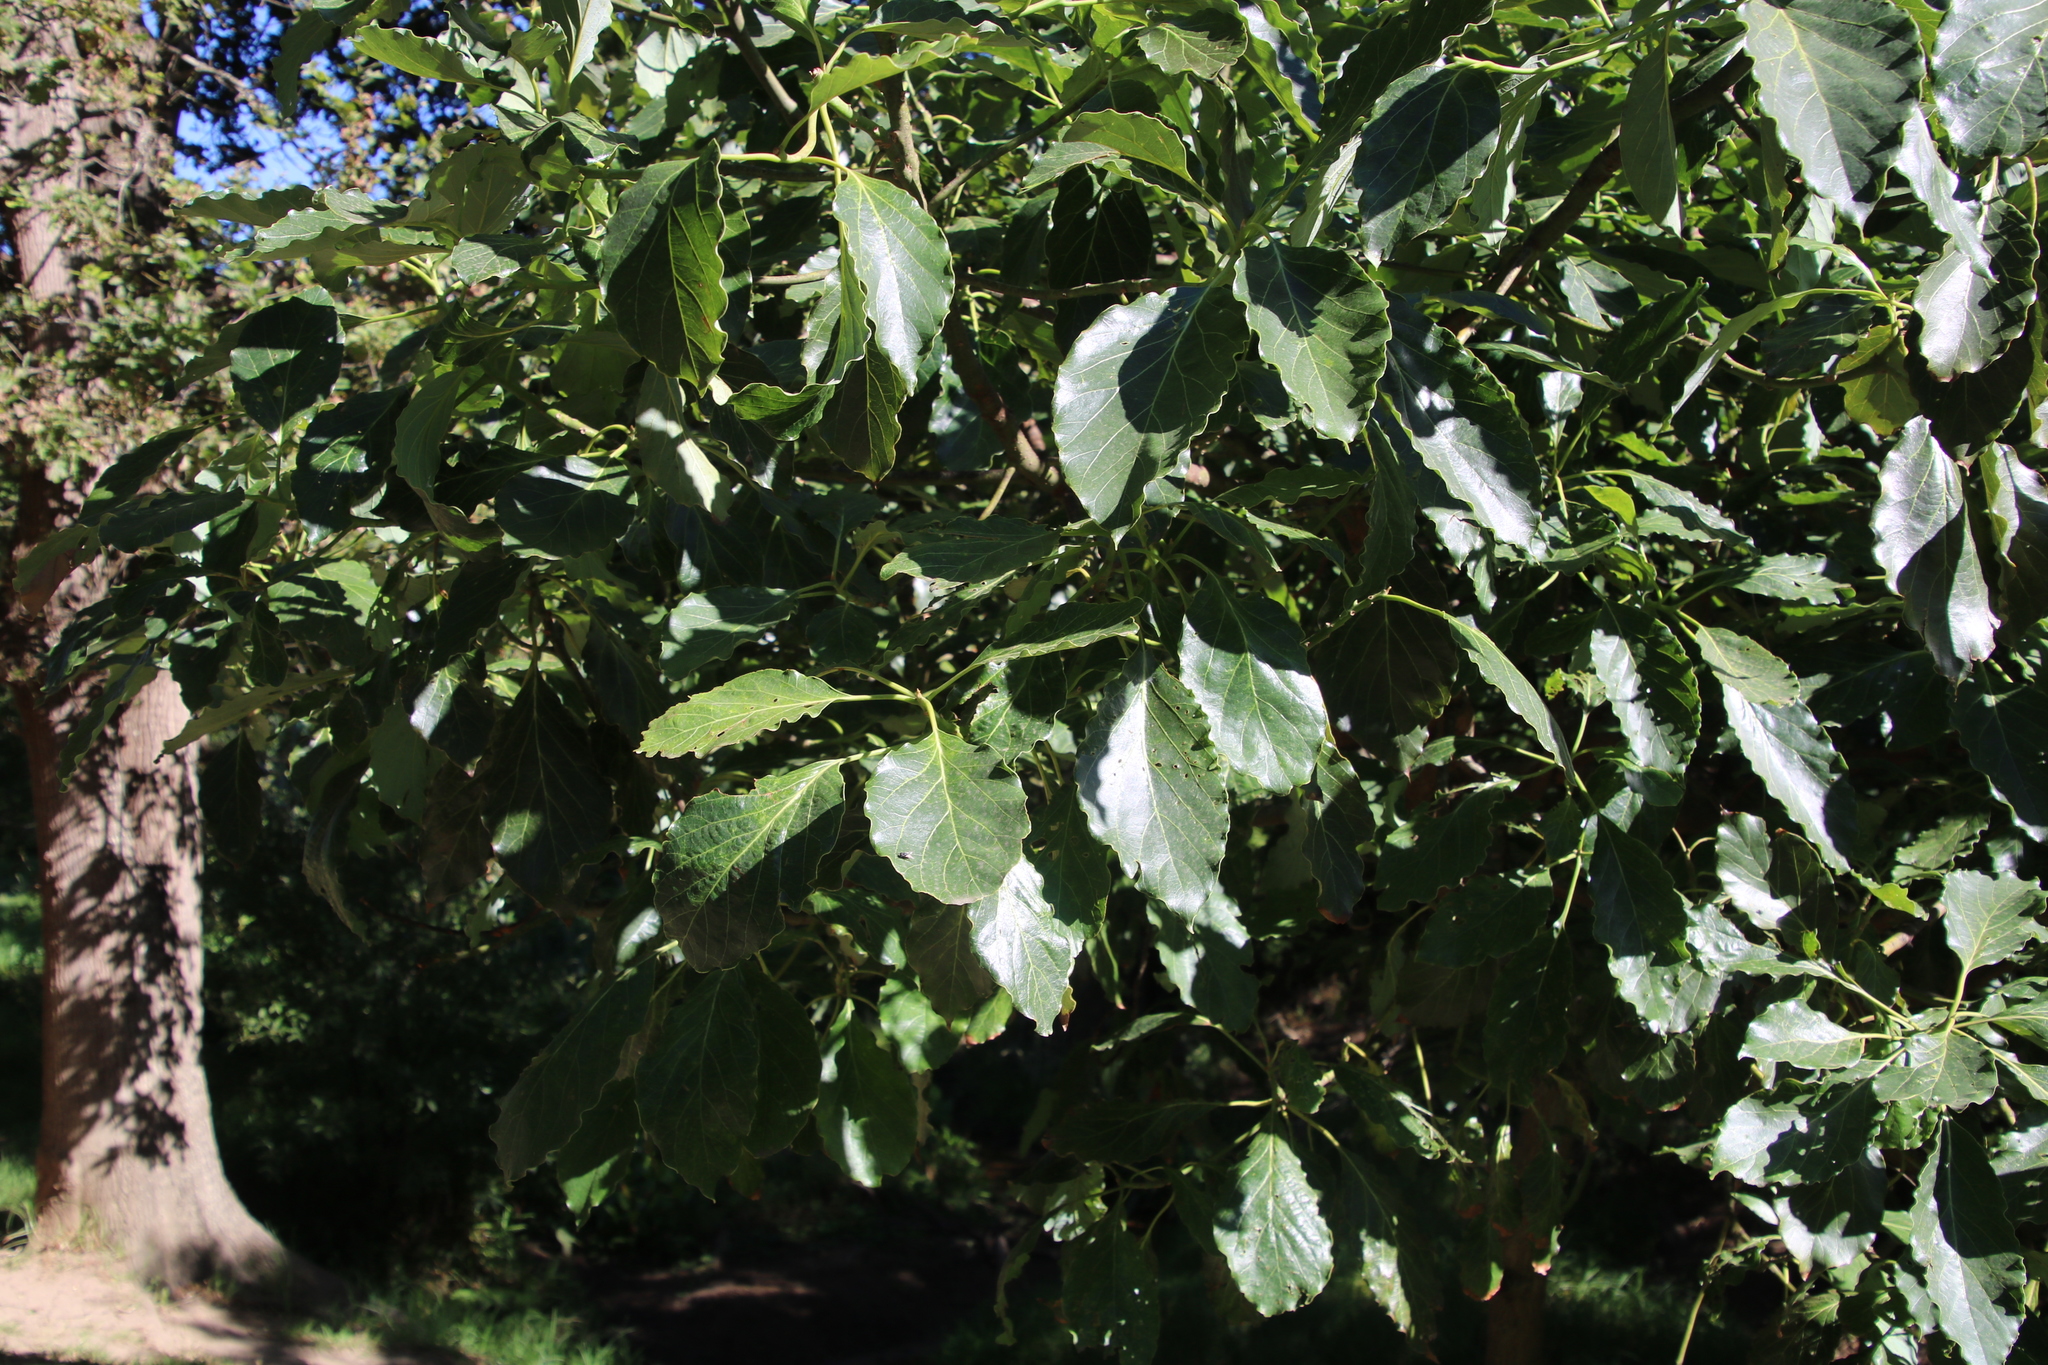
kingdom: Plantae
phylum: Tracheophyta
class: Magnoliopsida
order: Laurales
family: Lauraceae
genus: Persea
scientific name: Persea americana
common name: Avocado
